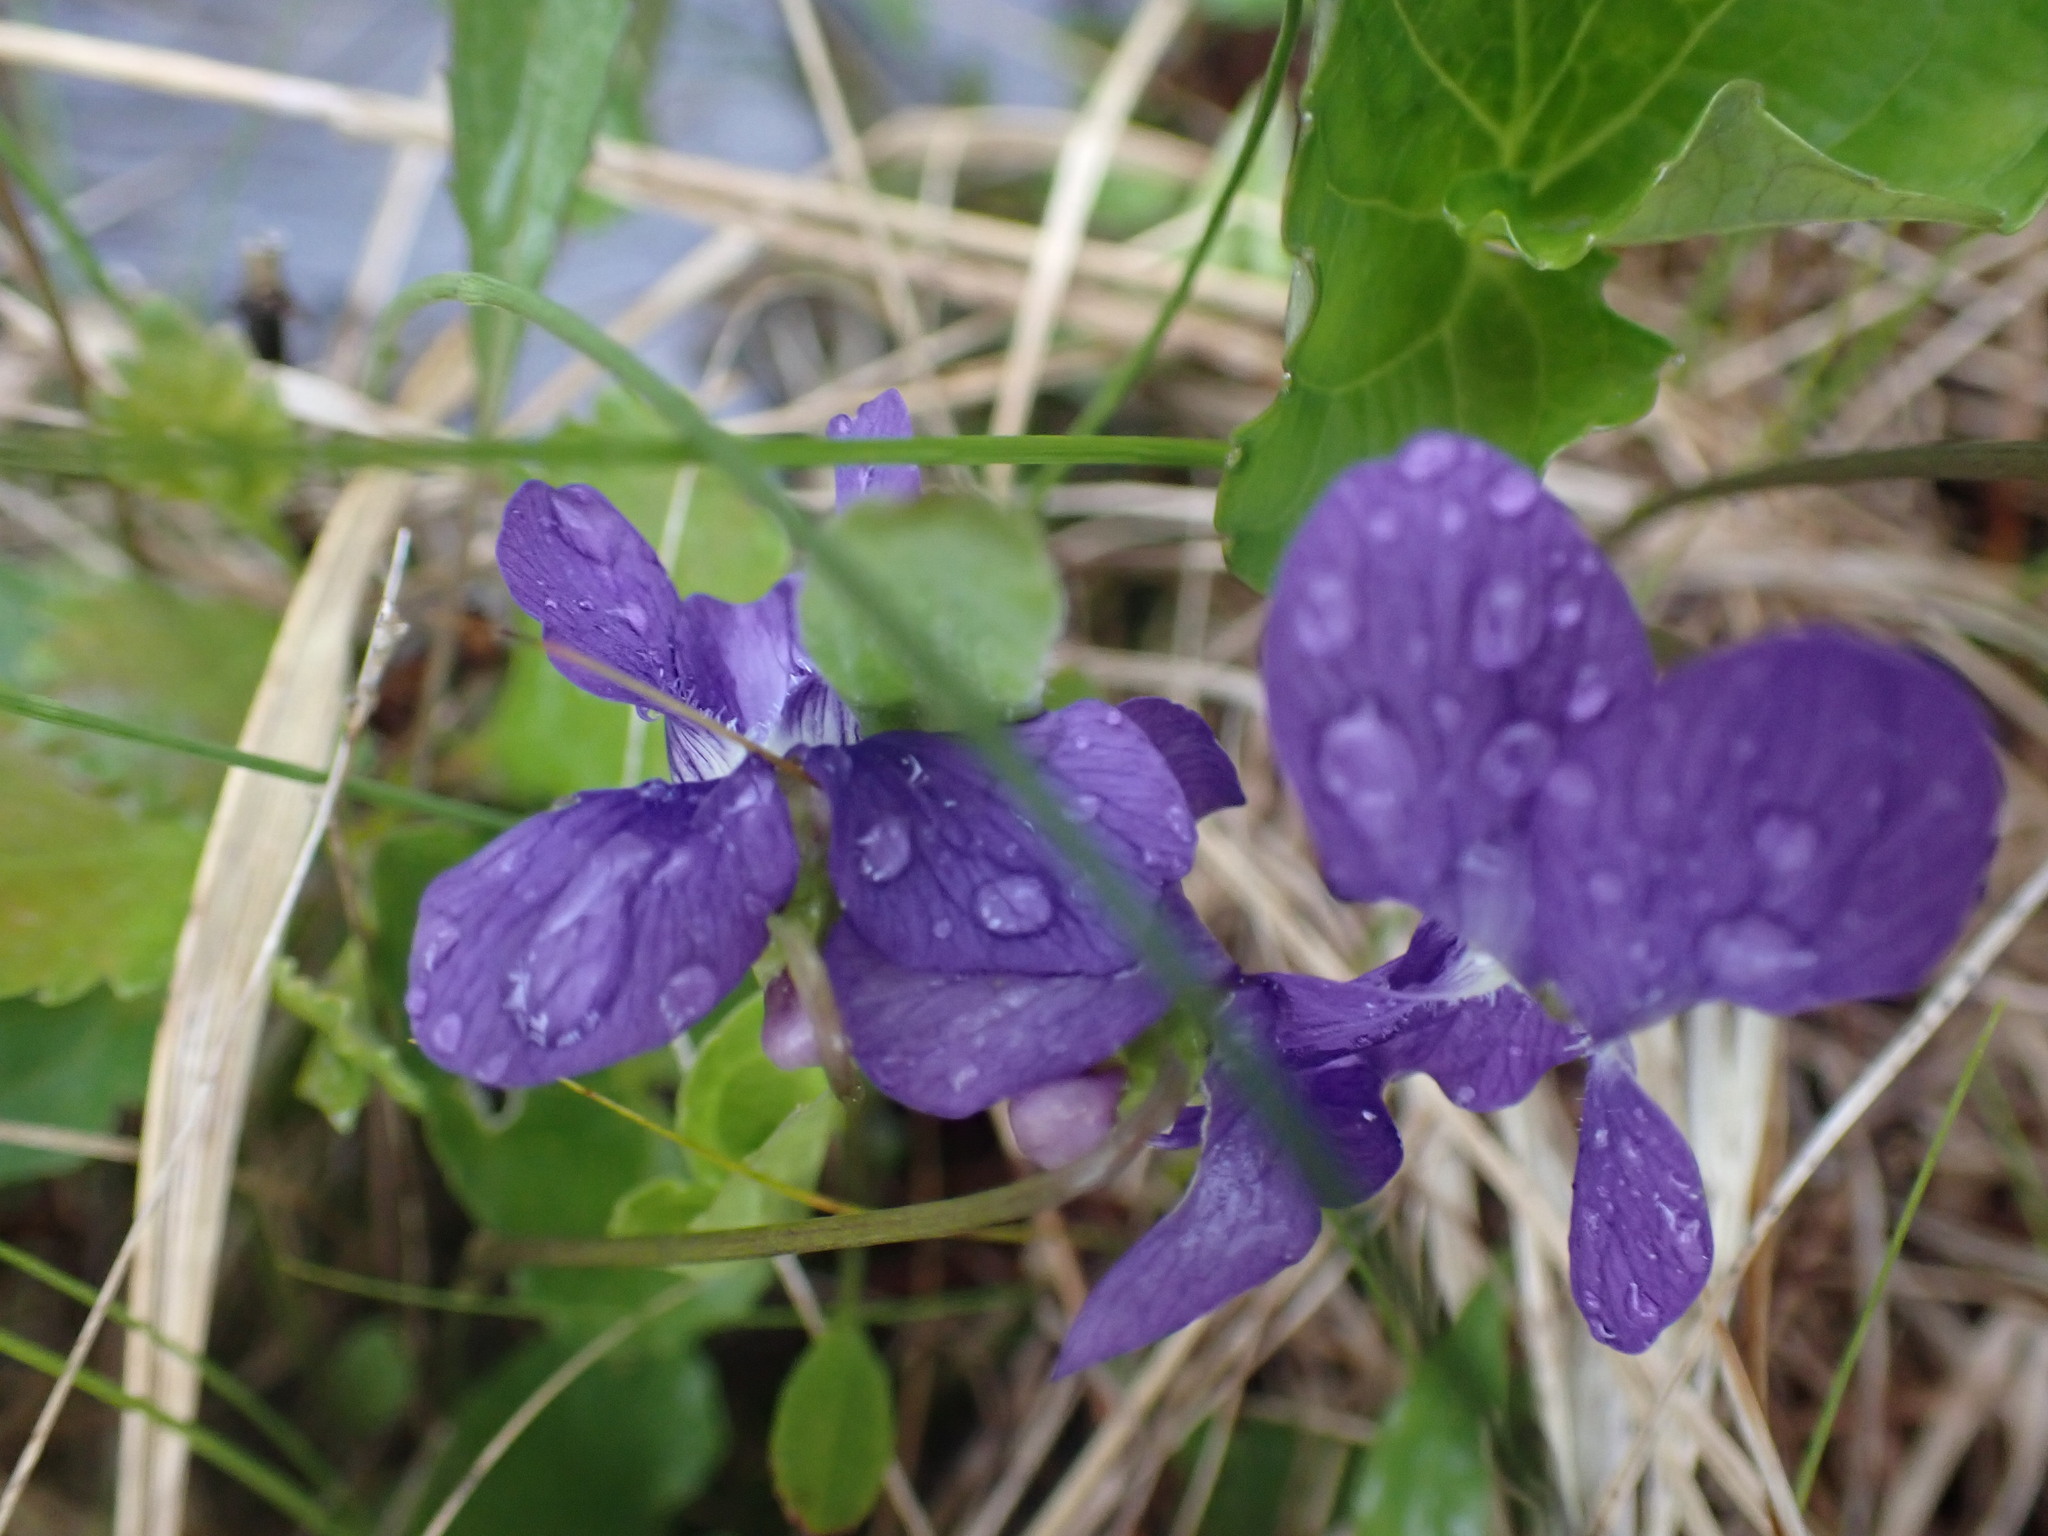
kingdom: Plantae
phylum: Tracheophyta
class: Magnoliopsida
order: Malpighiales
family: Violaceae
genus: Viola
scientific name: Viola nephrophylla
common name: Blue meadow violet
